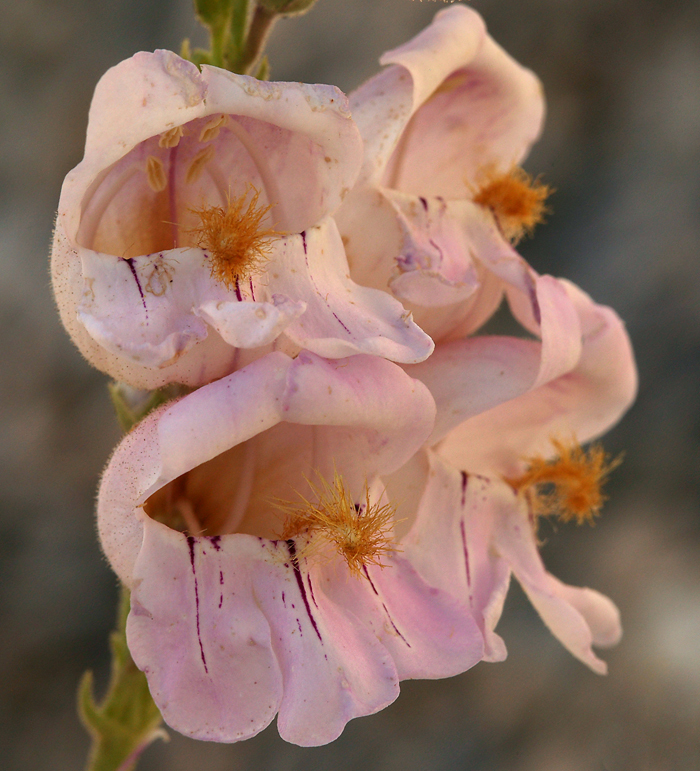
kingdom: Plantae
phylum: Tracheophyta
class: Magnoliopsida
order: Lamiales
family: Plantaginaceae
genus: Penstemon
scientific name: Penstemon palmeri
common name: Palmer penstemon
